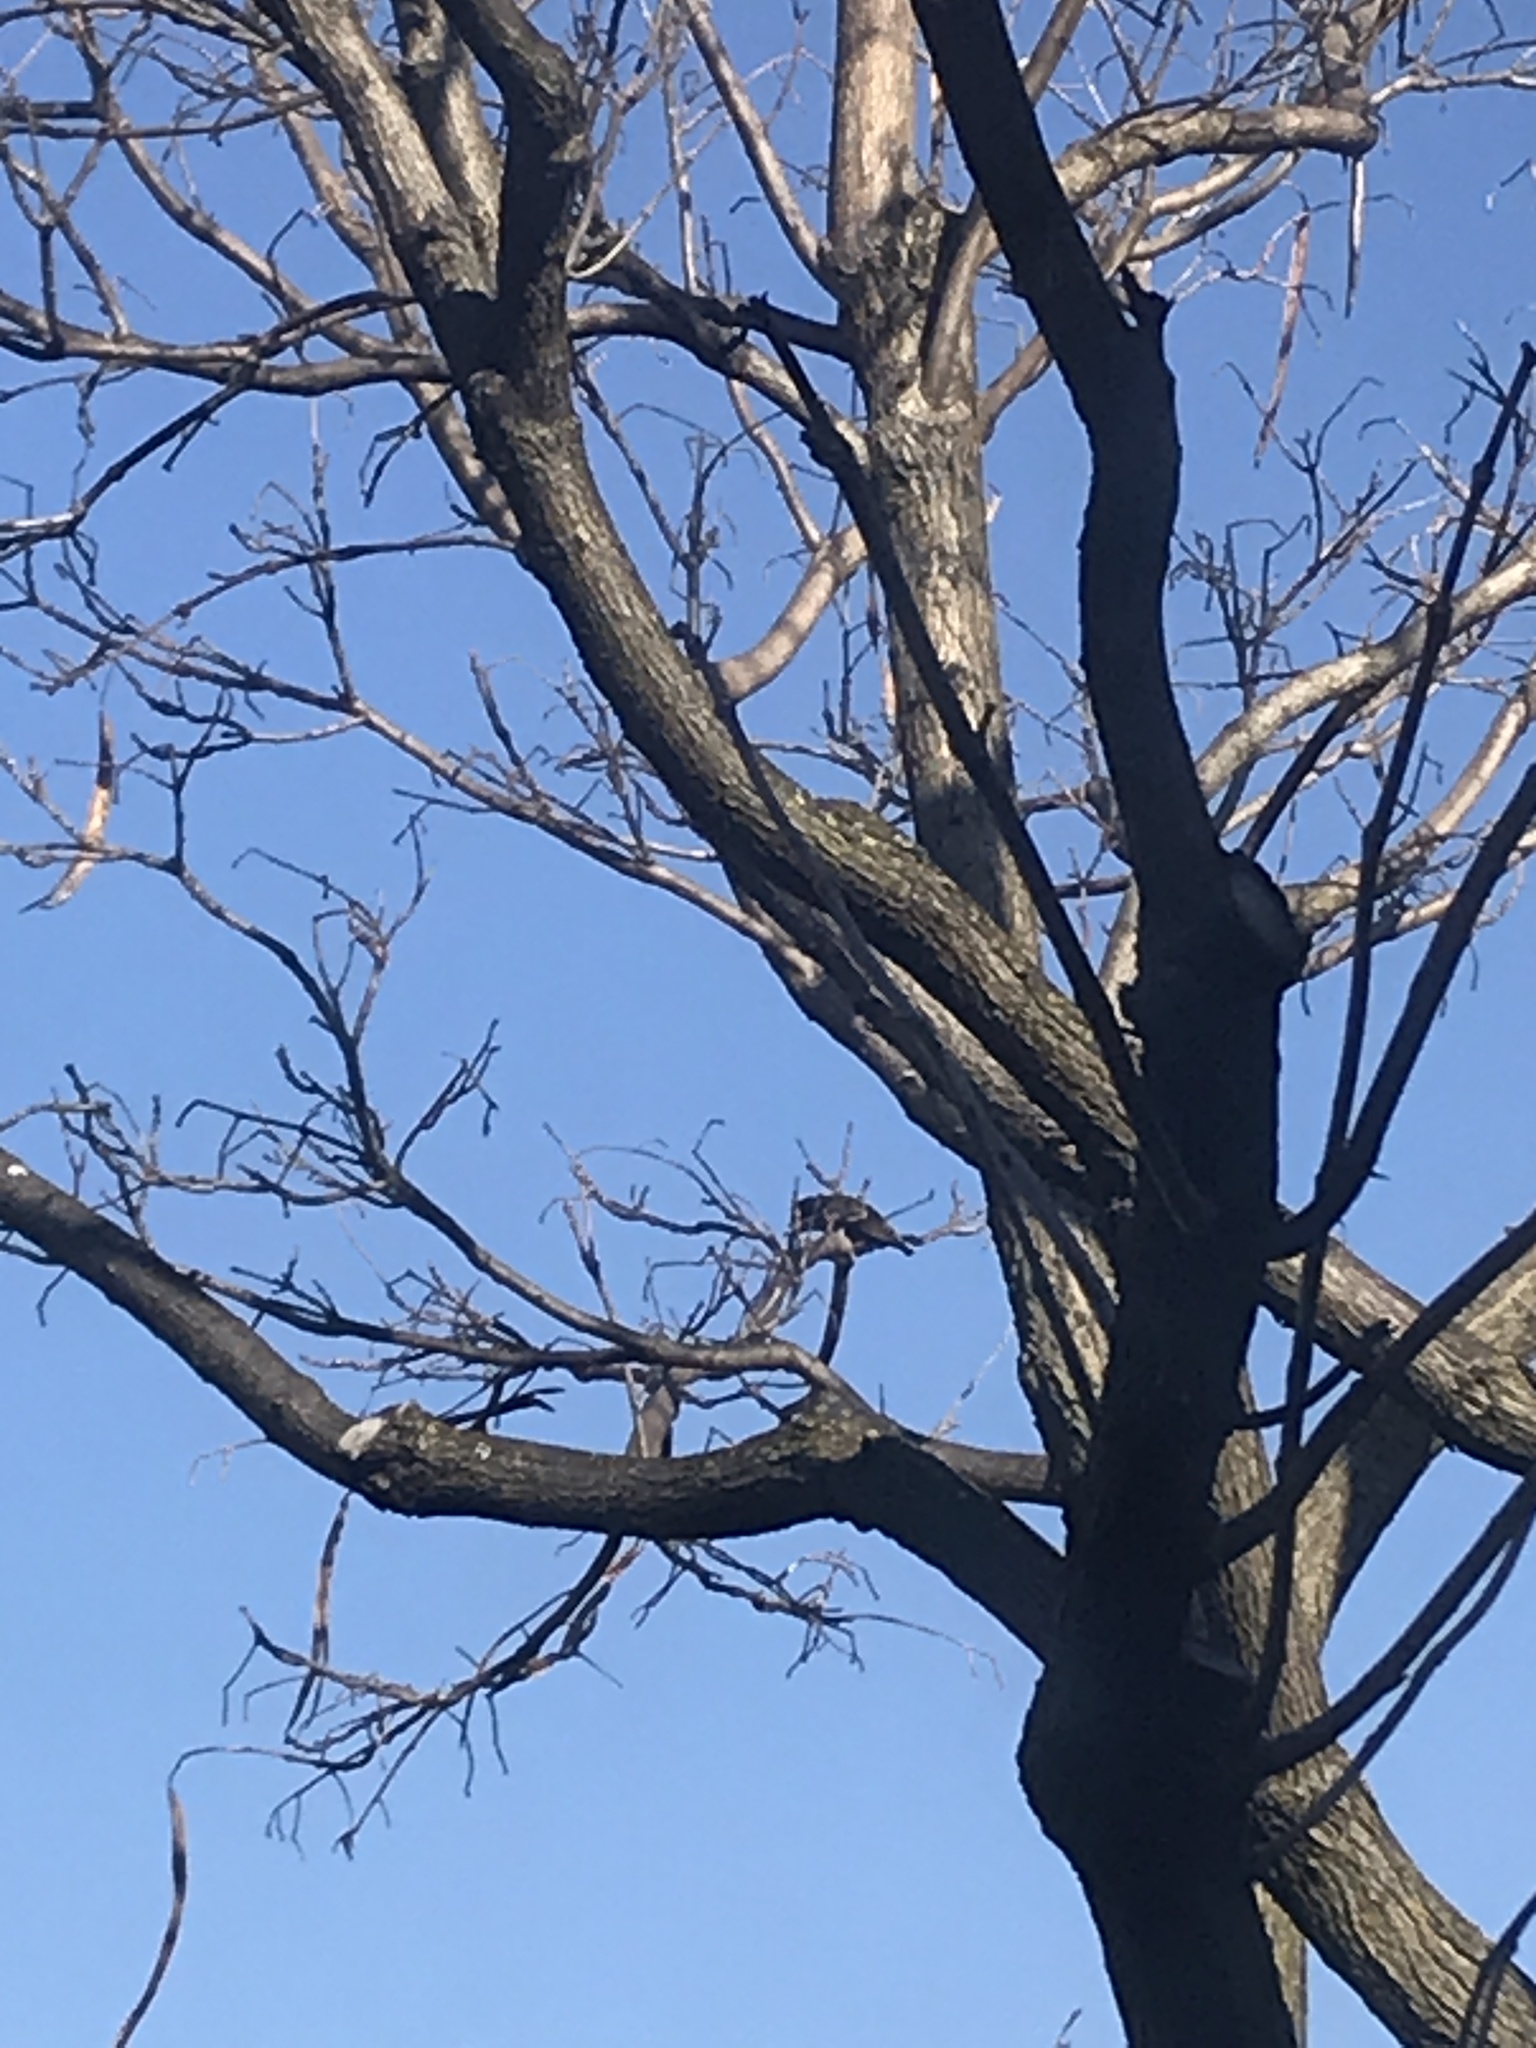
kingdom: Animalia
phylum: Chordata
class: Aves
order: Passeriformes
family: Sturnidae
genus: Sturnus
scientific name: Sturnus vulgaris
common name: Common starling
